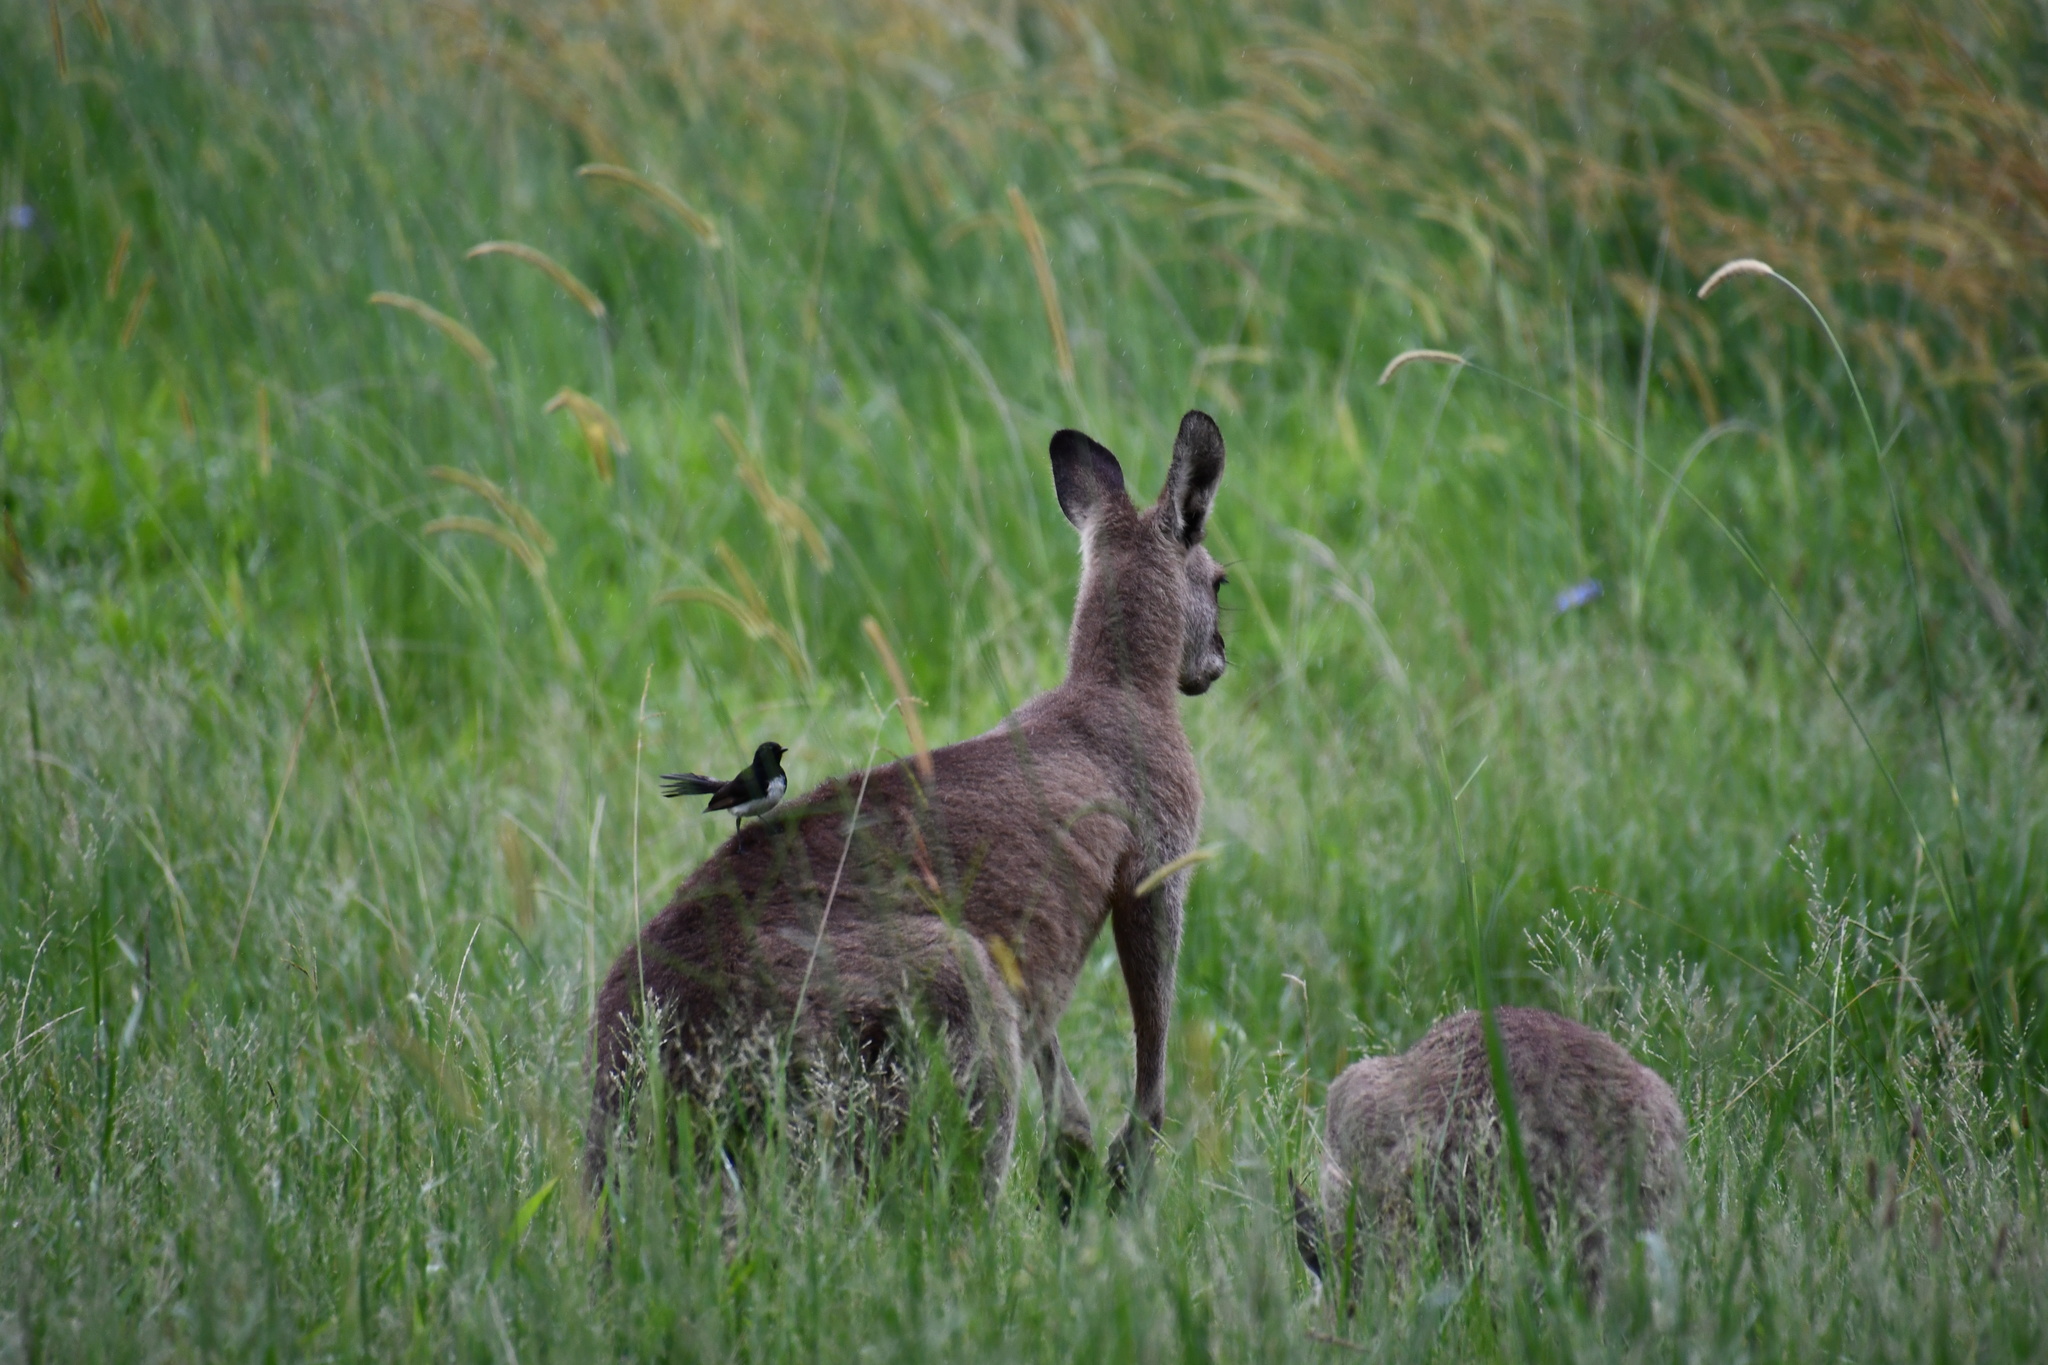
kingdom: Animalia
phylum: Chordata
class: Aves
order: Passeriformes
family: Rhipiduridae
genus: Rhipidura
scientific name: Rhipidura leucophrys
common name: Willie wagtail
